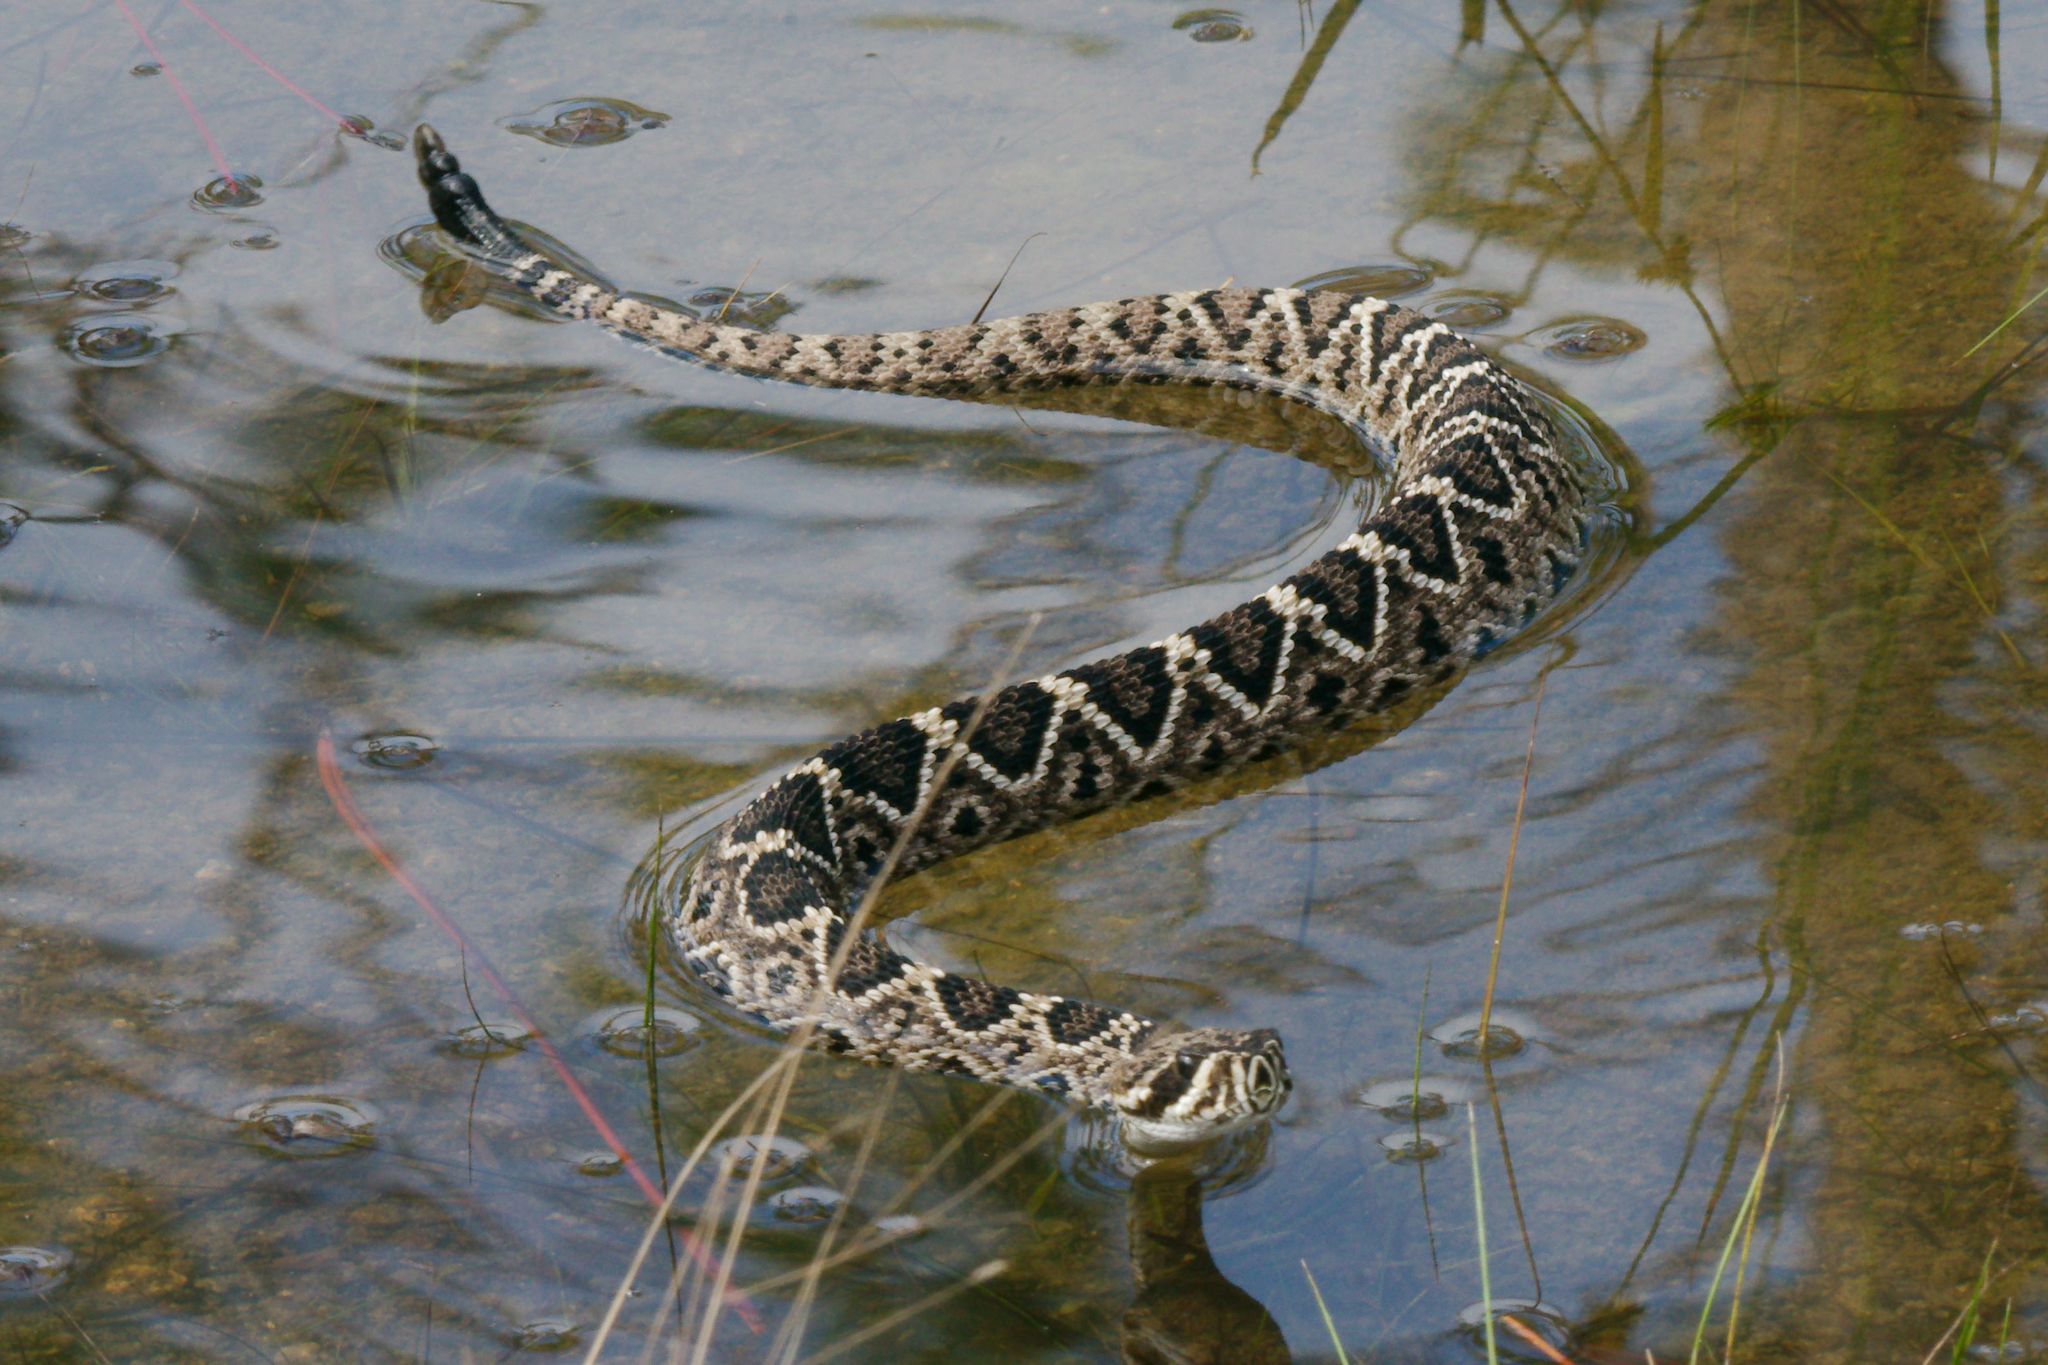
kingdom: Animalia
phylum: Chordata
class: Squamata
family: Viperidae
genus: Crotalus
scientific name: Crotalus adamanteus
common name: Eastern diamondback rattlesnake
